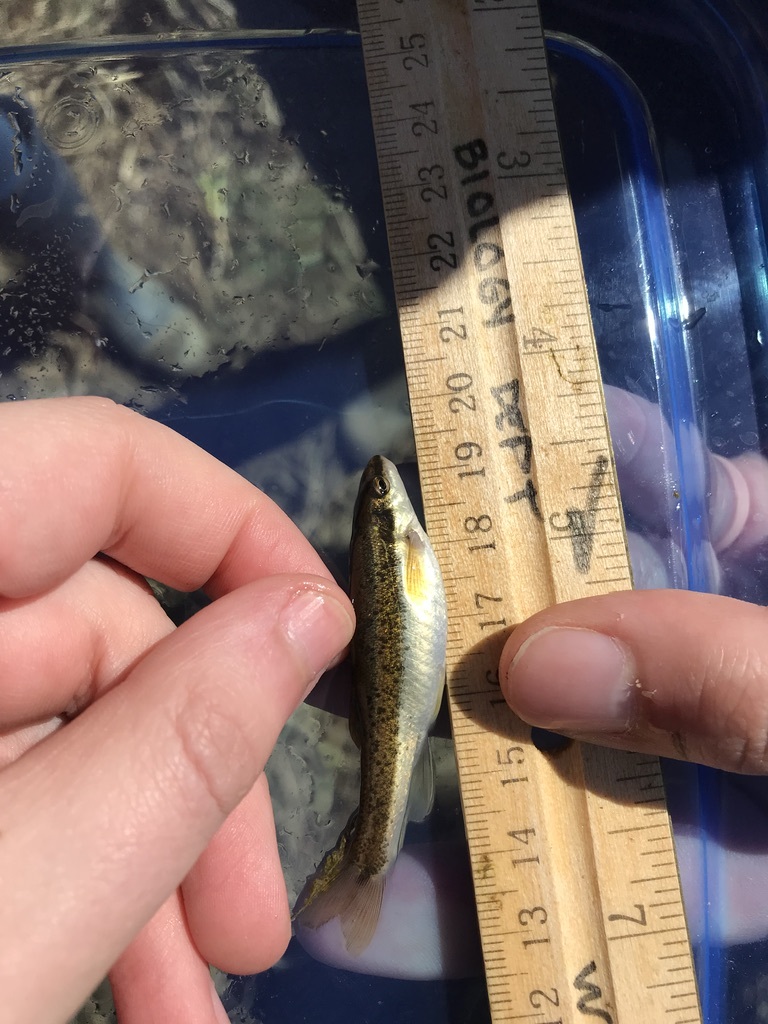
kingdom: Animalia
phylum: Chordata
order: Cypriniformes
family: Cyprinidae
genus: Rhinichthys
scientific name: Rhinichthys atratulus
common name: Eastern blacknose dace
